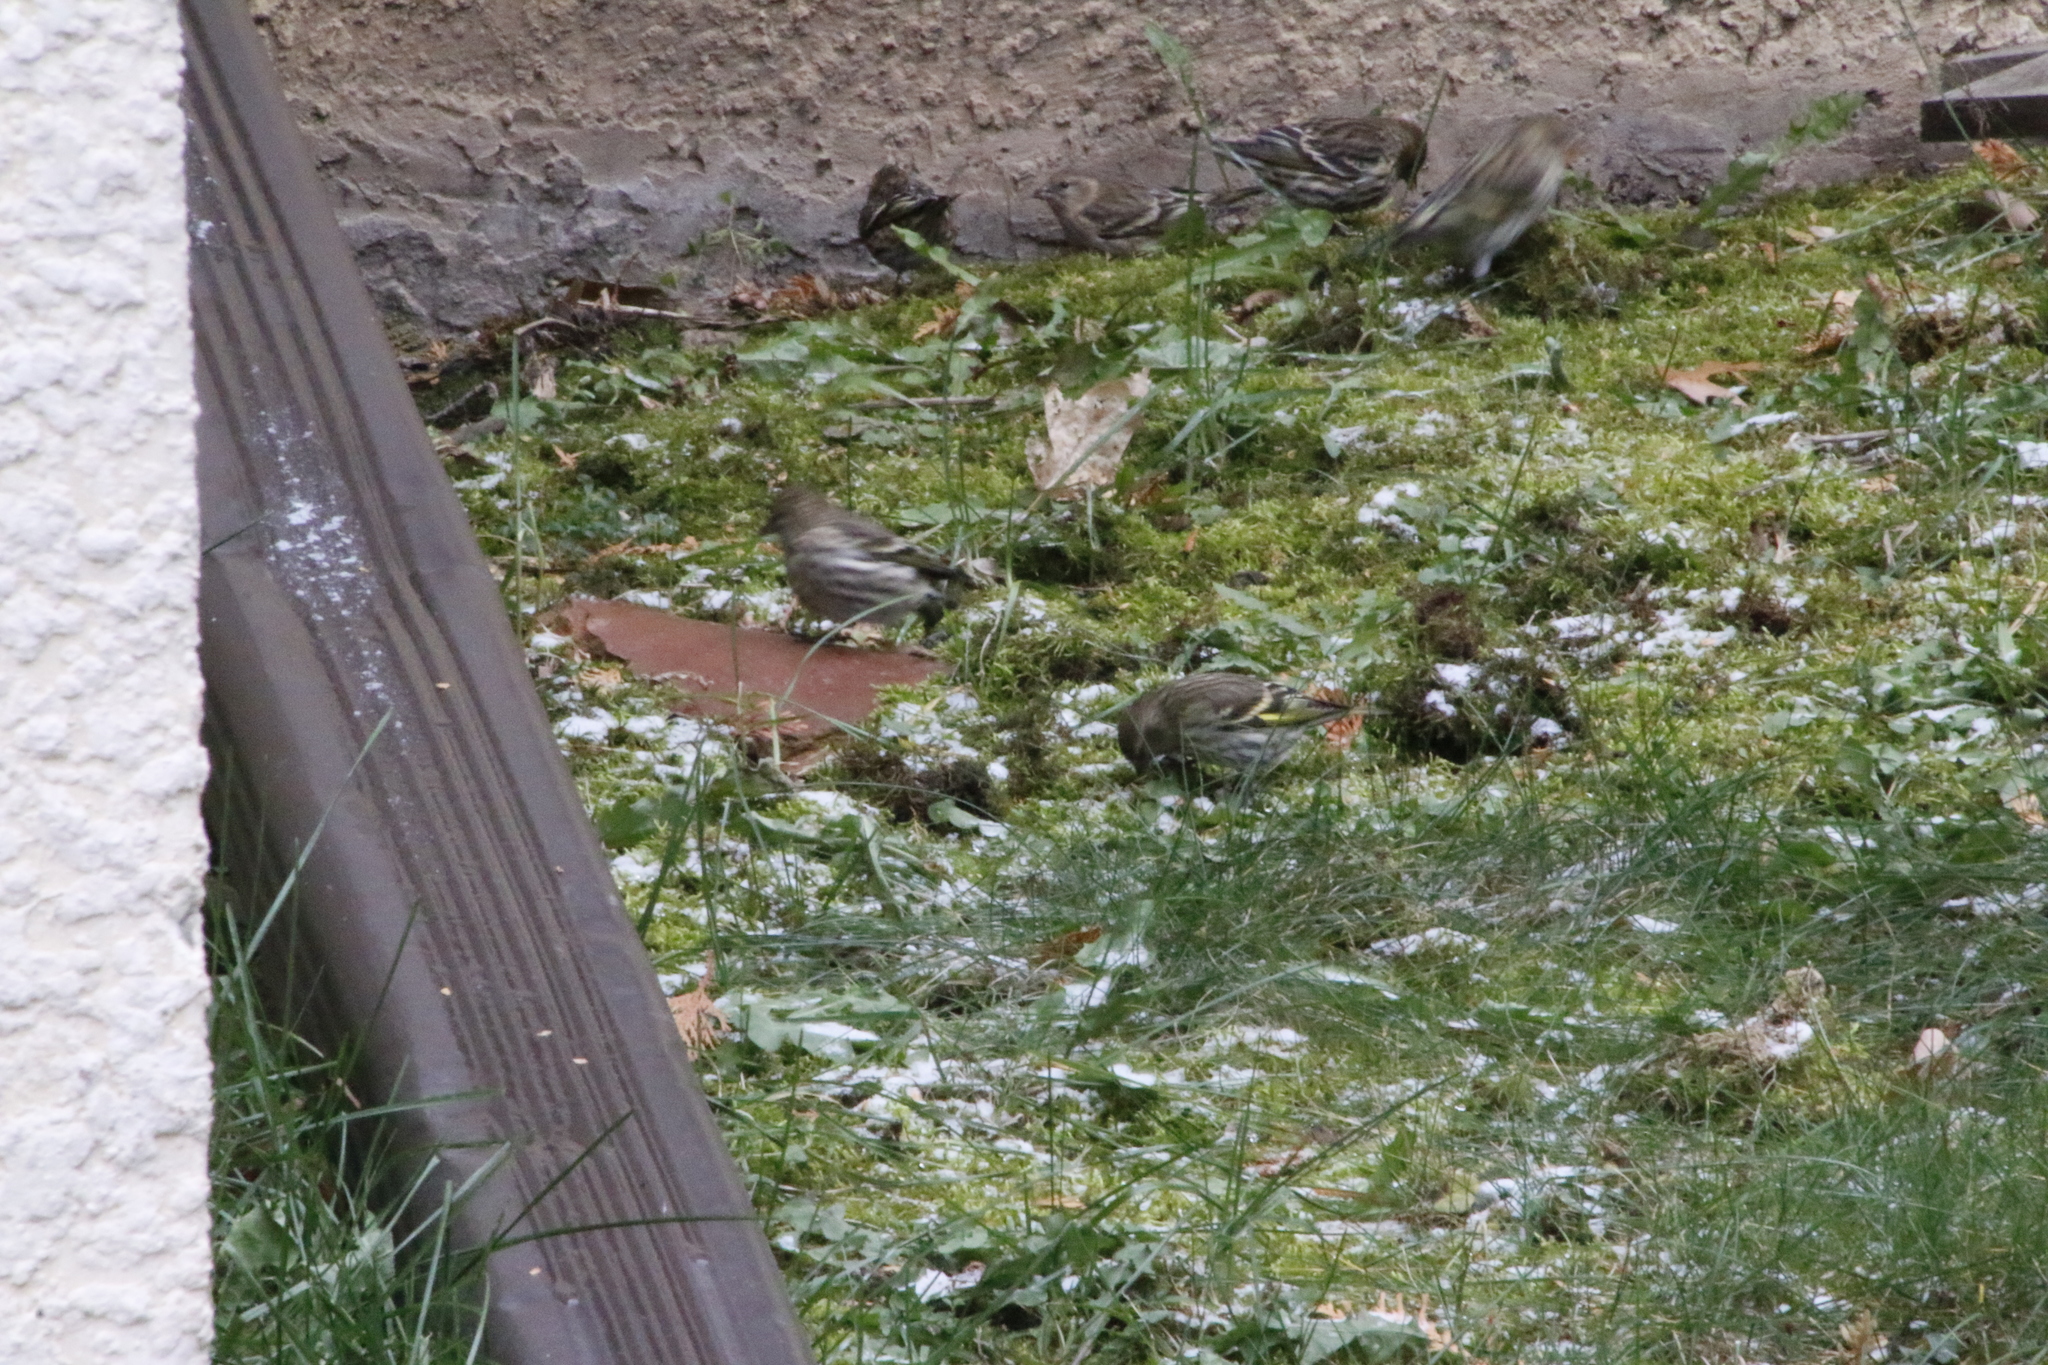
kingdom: Animalia
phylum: Chordata
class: Aves
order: Passeriformes
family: Fringillidae
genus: Spinus
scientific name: Spinus pinus
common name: Pine siskin
